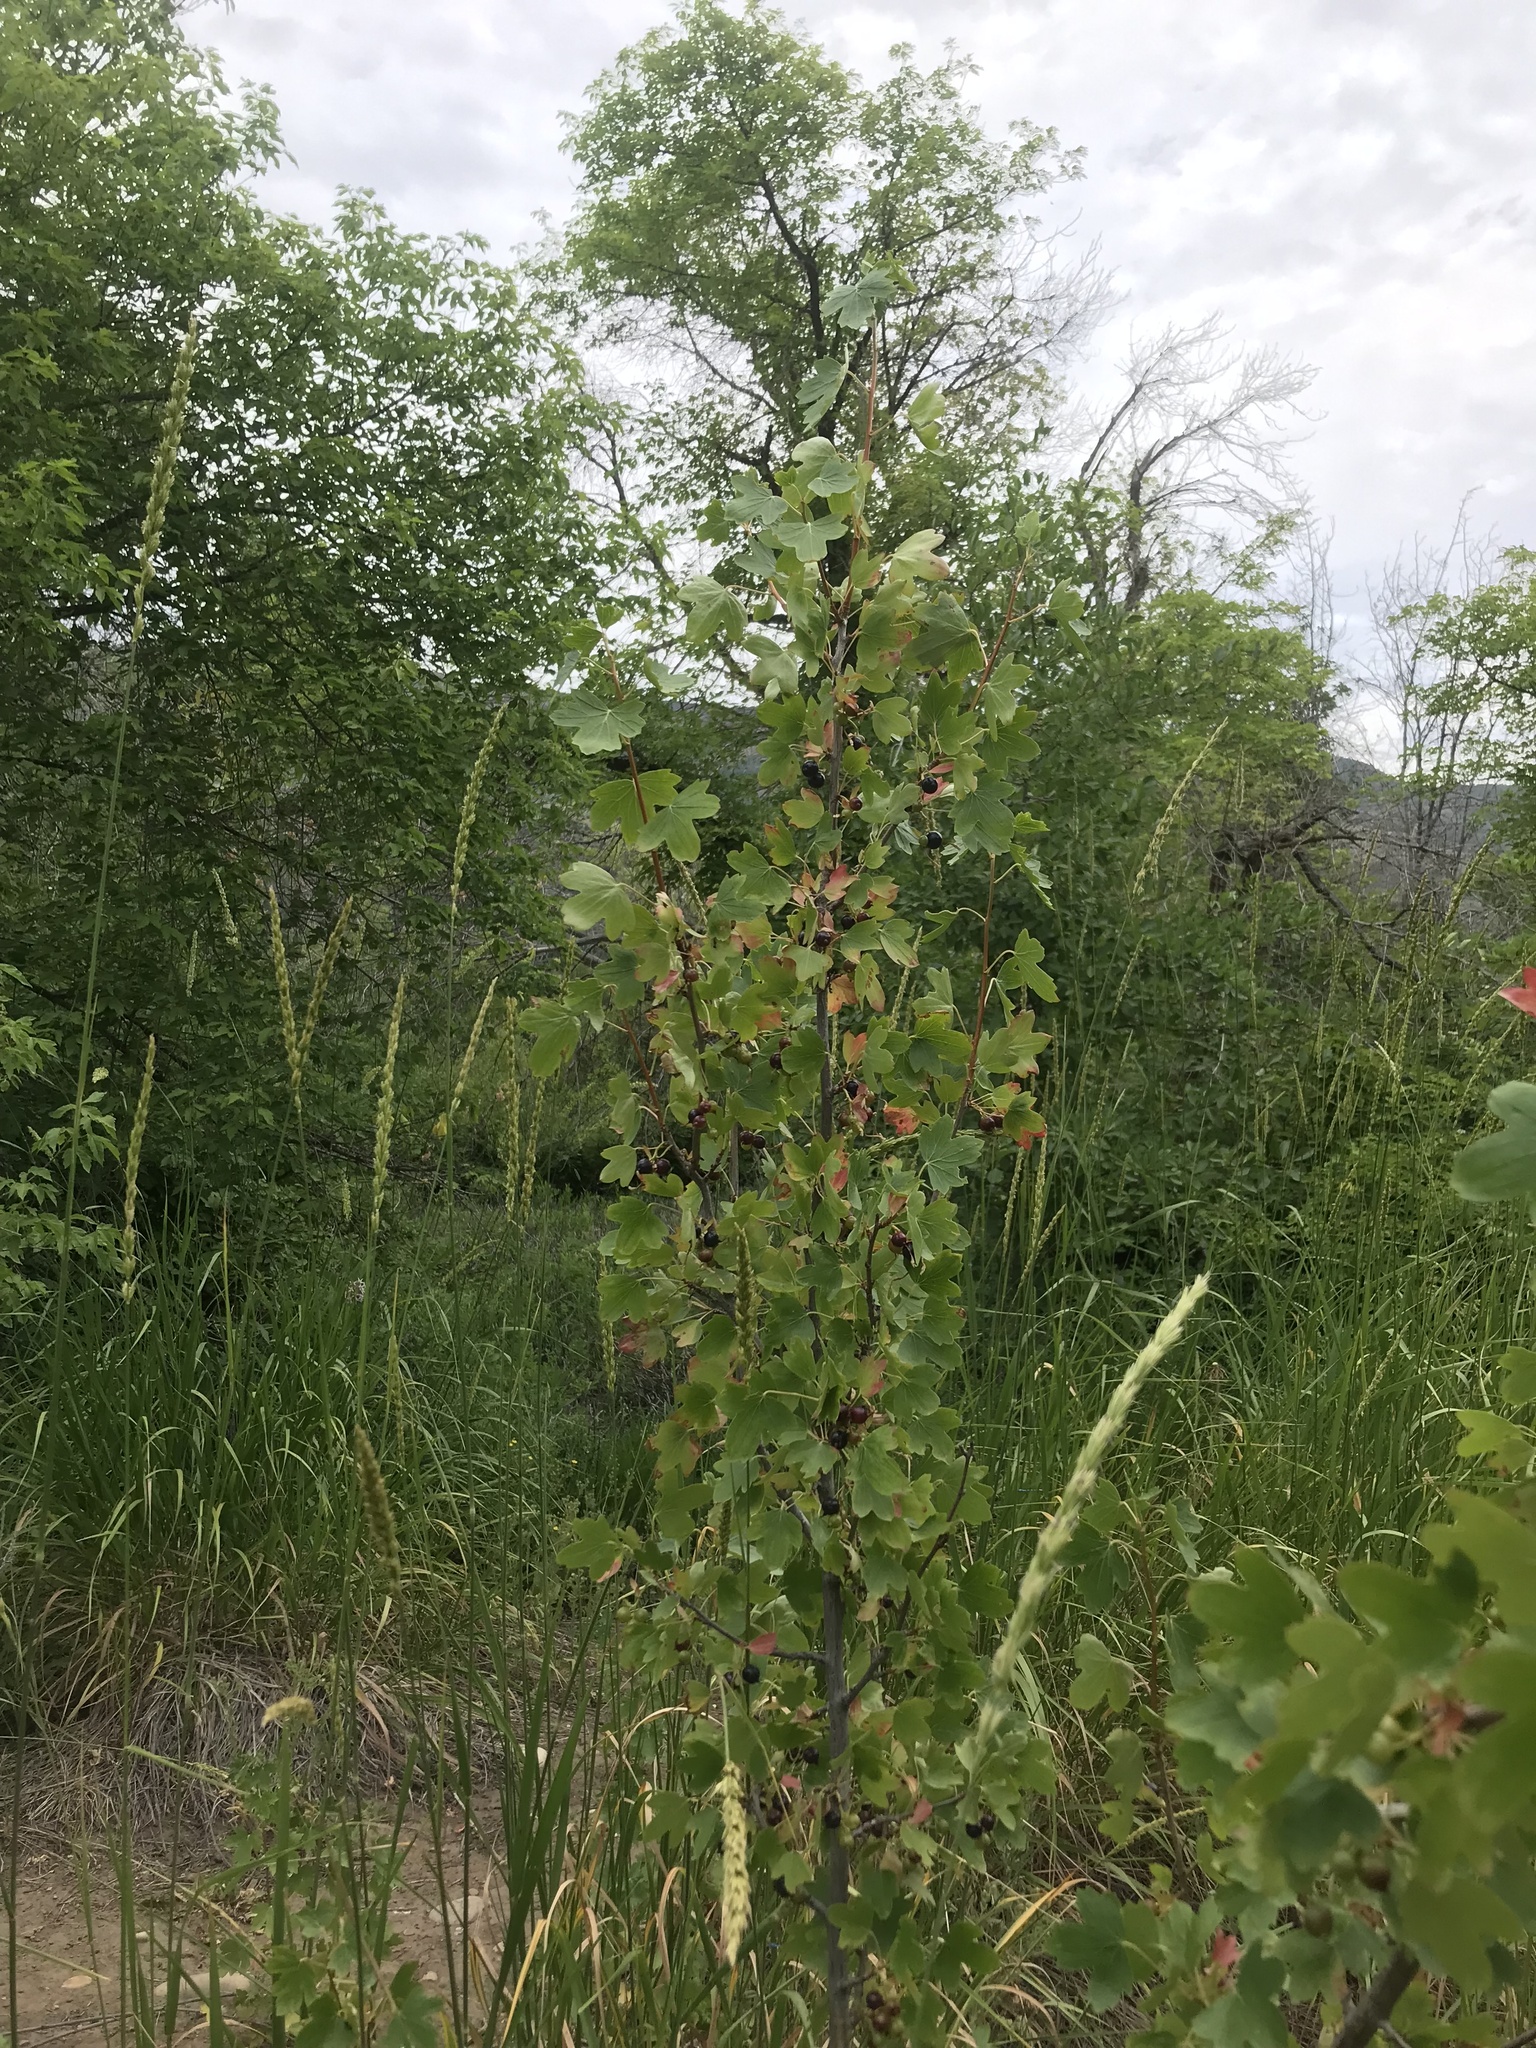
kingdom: Plantae
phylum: Tracheophyta
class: Magnoliopsida
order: Saxifragales
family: Grossulariaceae
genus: Ribes
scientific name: Ribes aureum
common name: Golden currant
